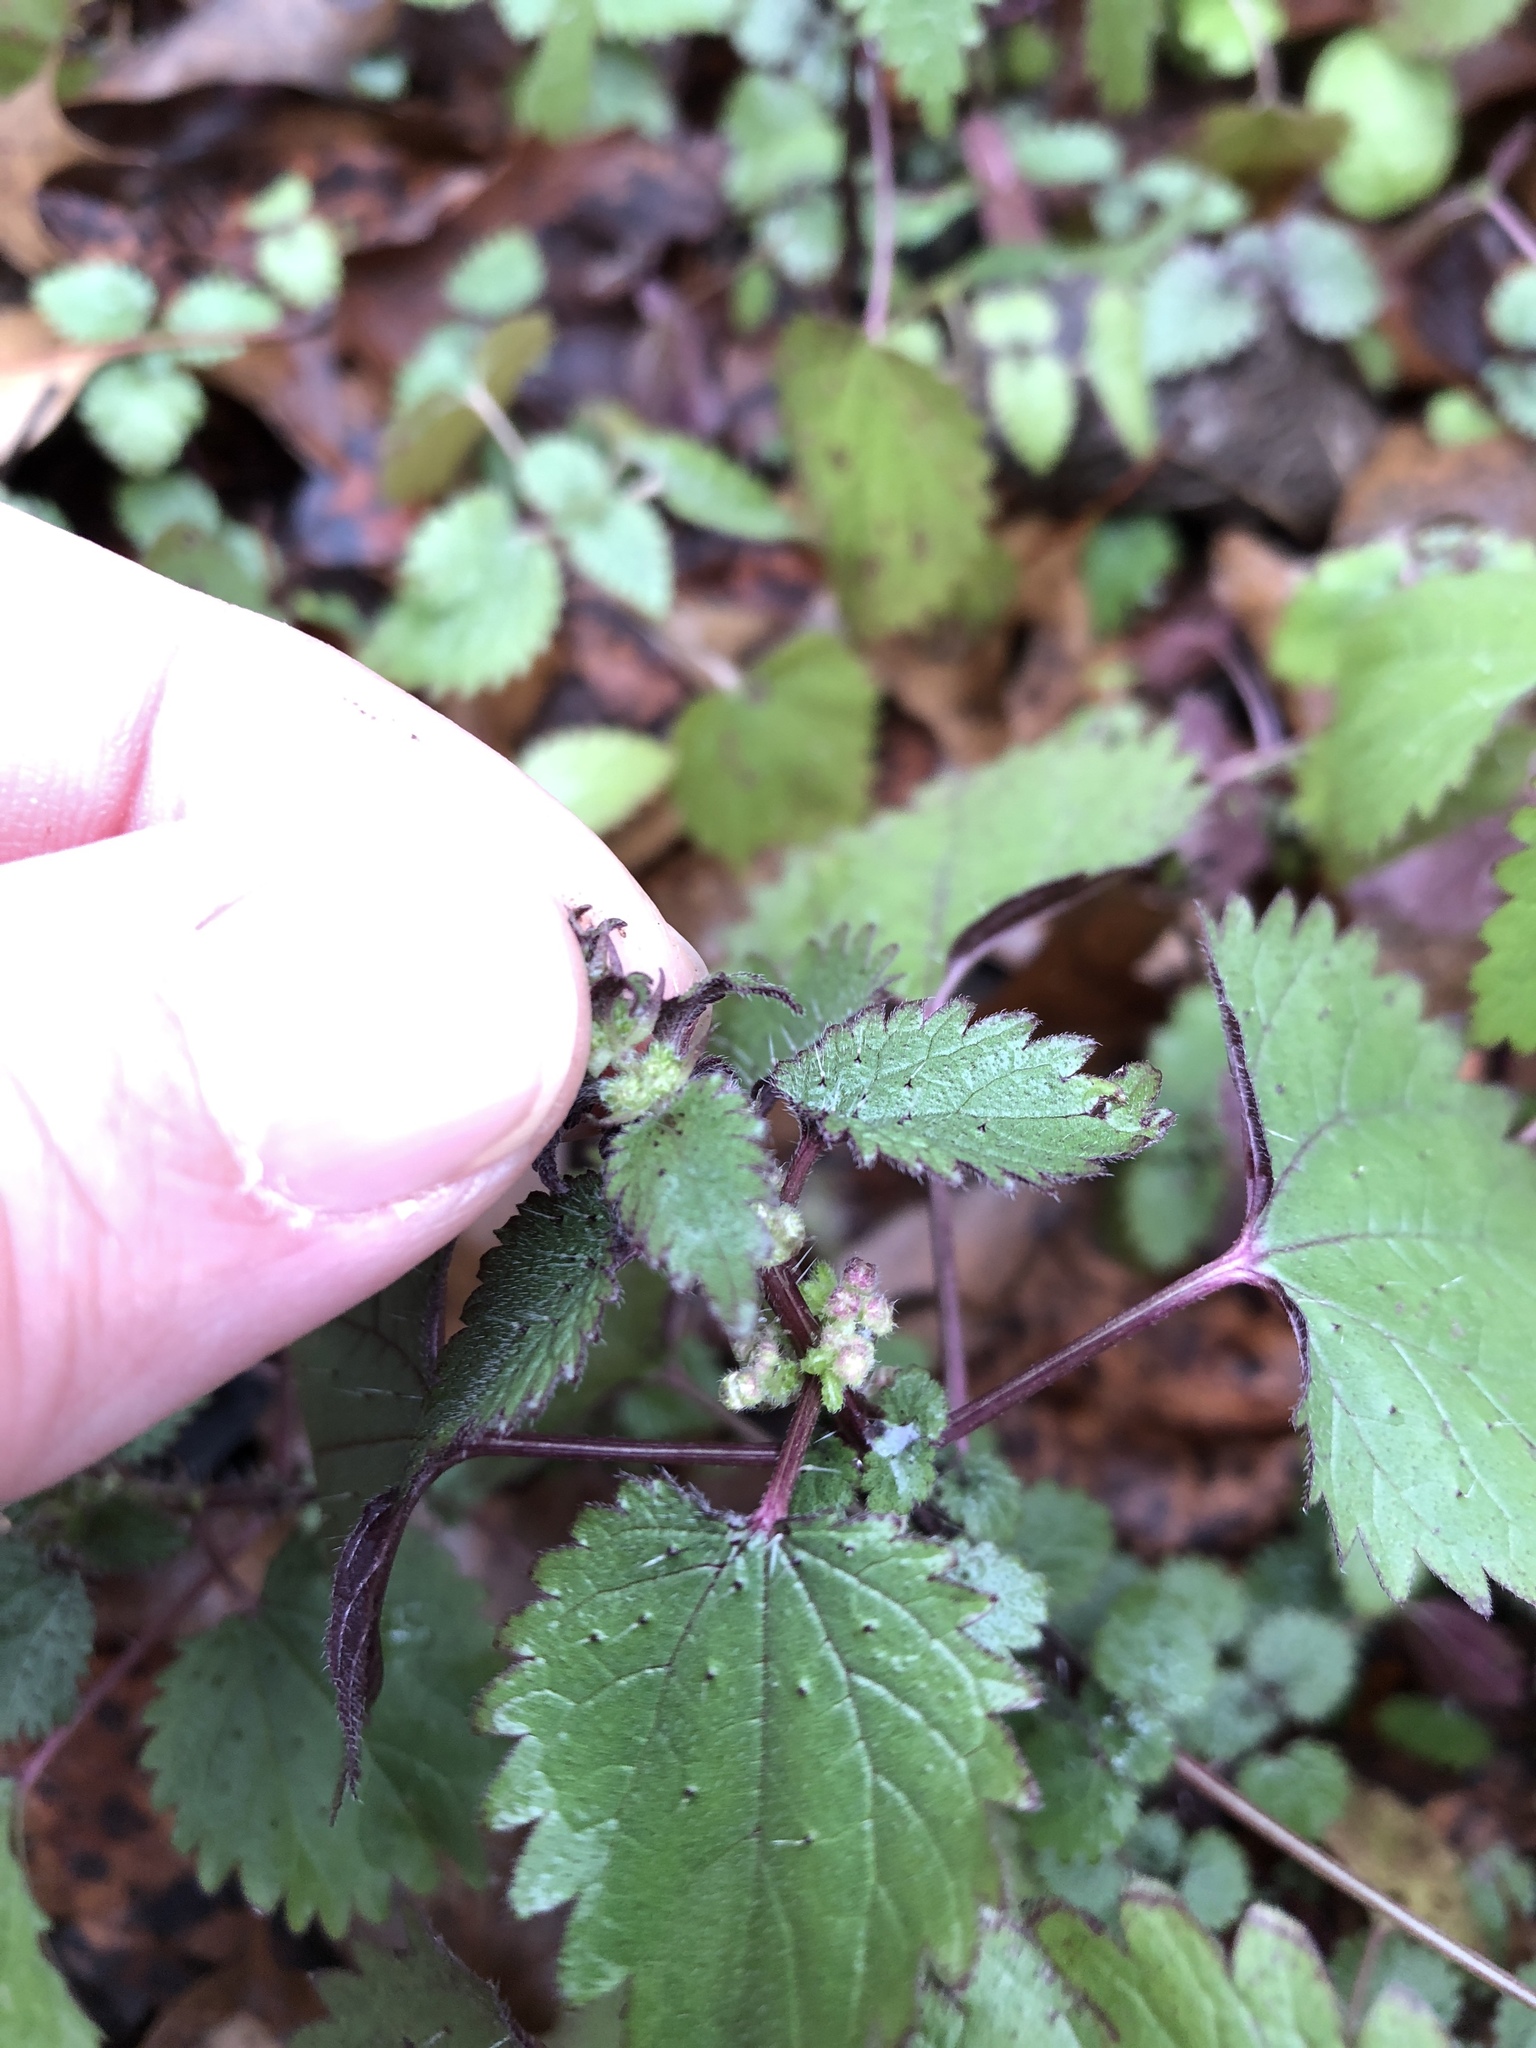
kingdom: Plantae
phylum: Tracheophyta
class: Magnoliopsida
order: Rosales
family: Urticaceae
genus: Urtica
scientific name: Urtica chamaedryoides
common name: Heart-leaf nettle
